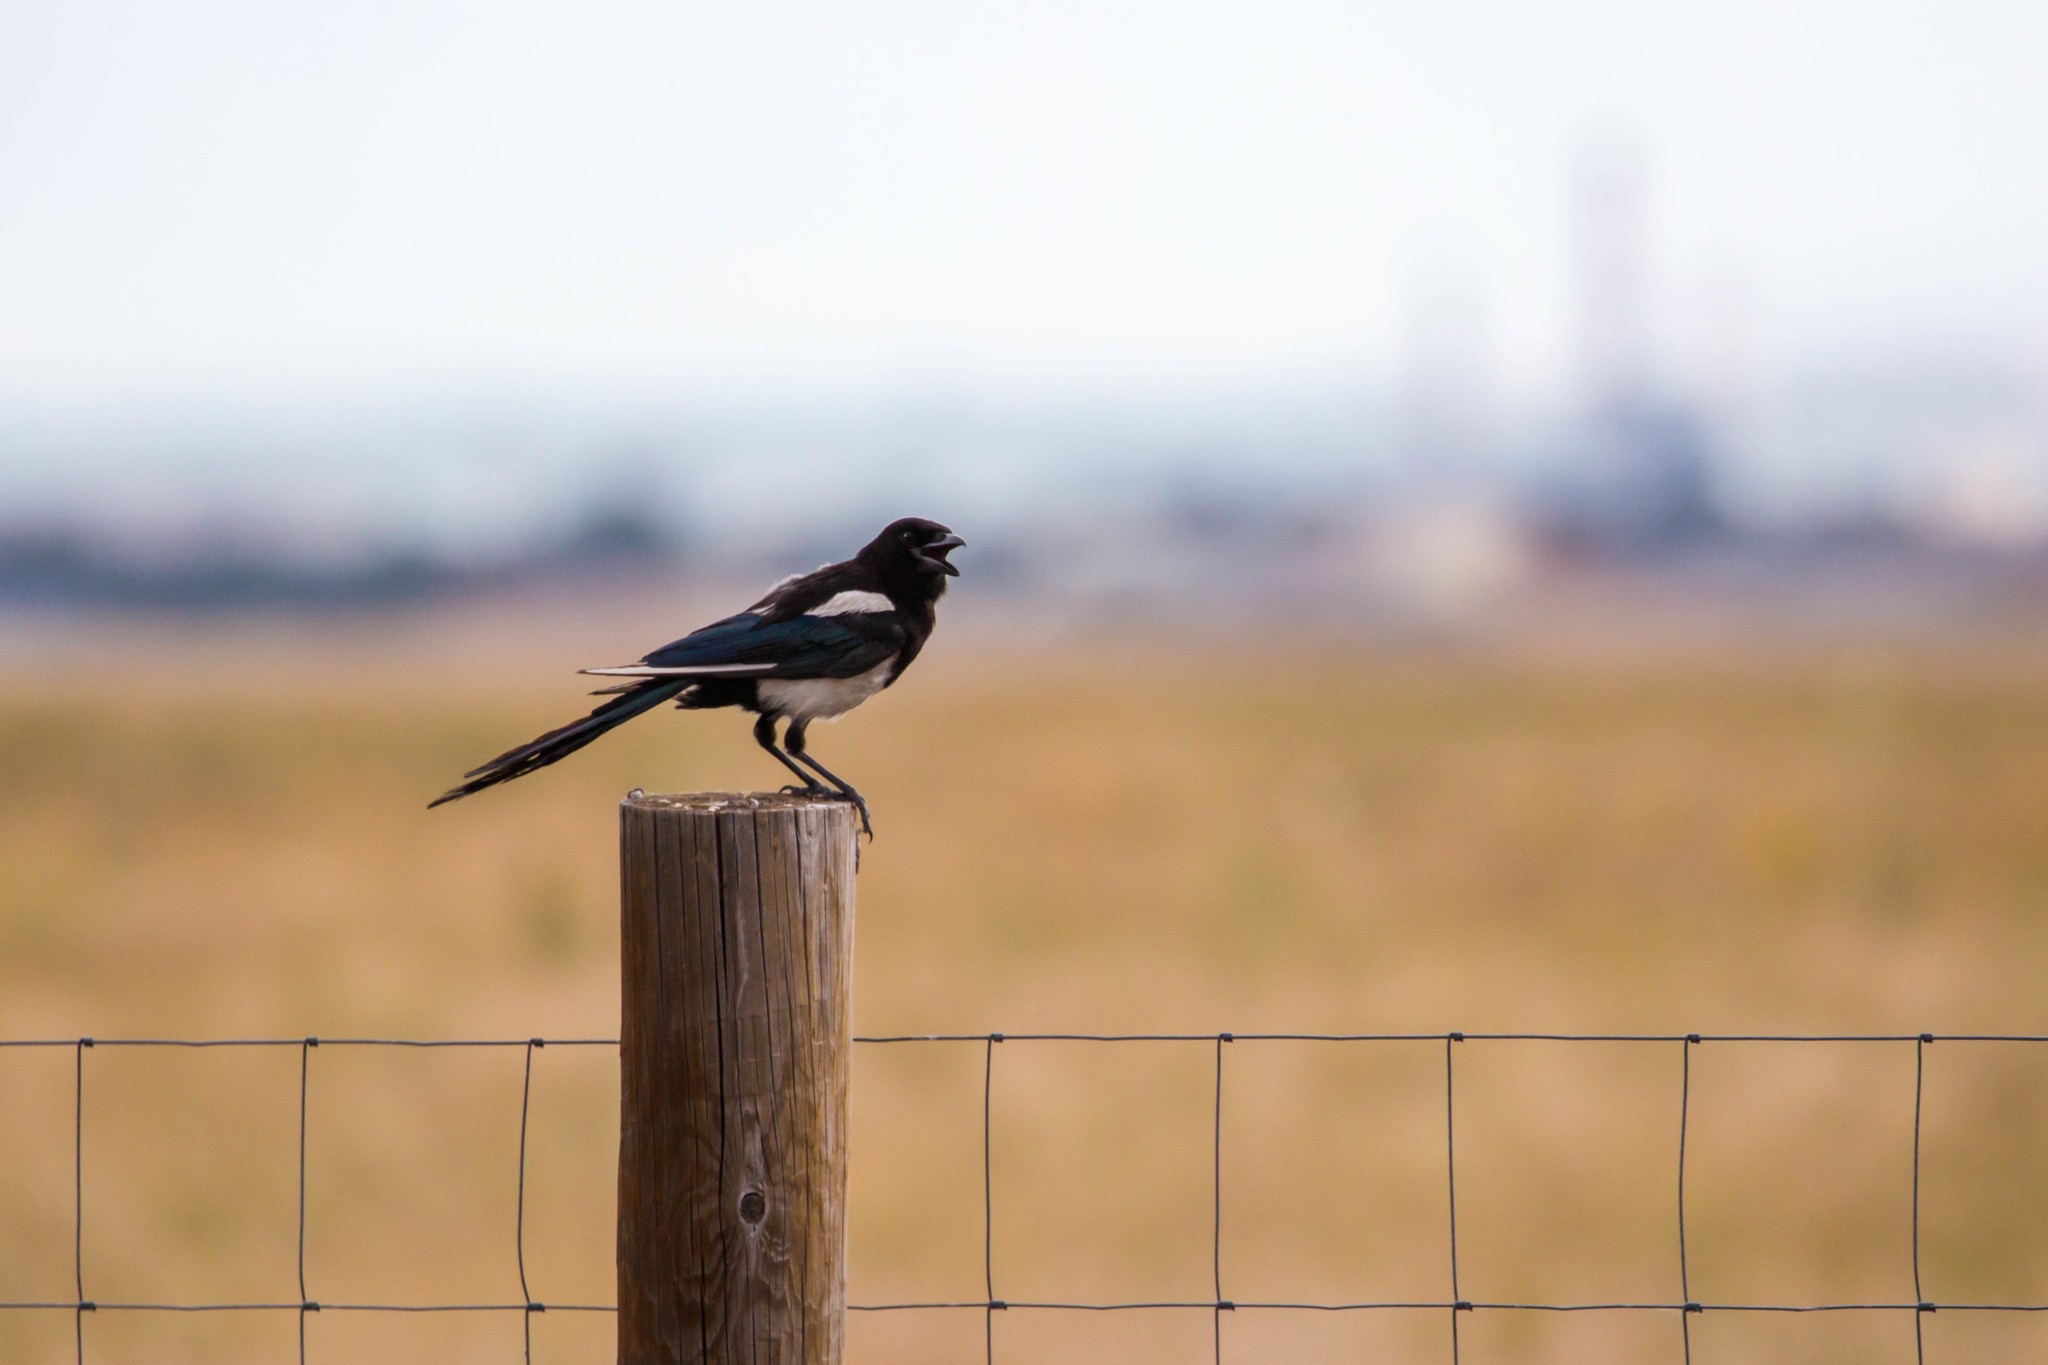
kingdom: Animalia
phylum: Chordata
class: Aves
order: Passeriformes
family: Corvidae
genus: Pica
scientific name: Pica hudsonia
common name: Black-billed magpie
